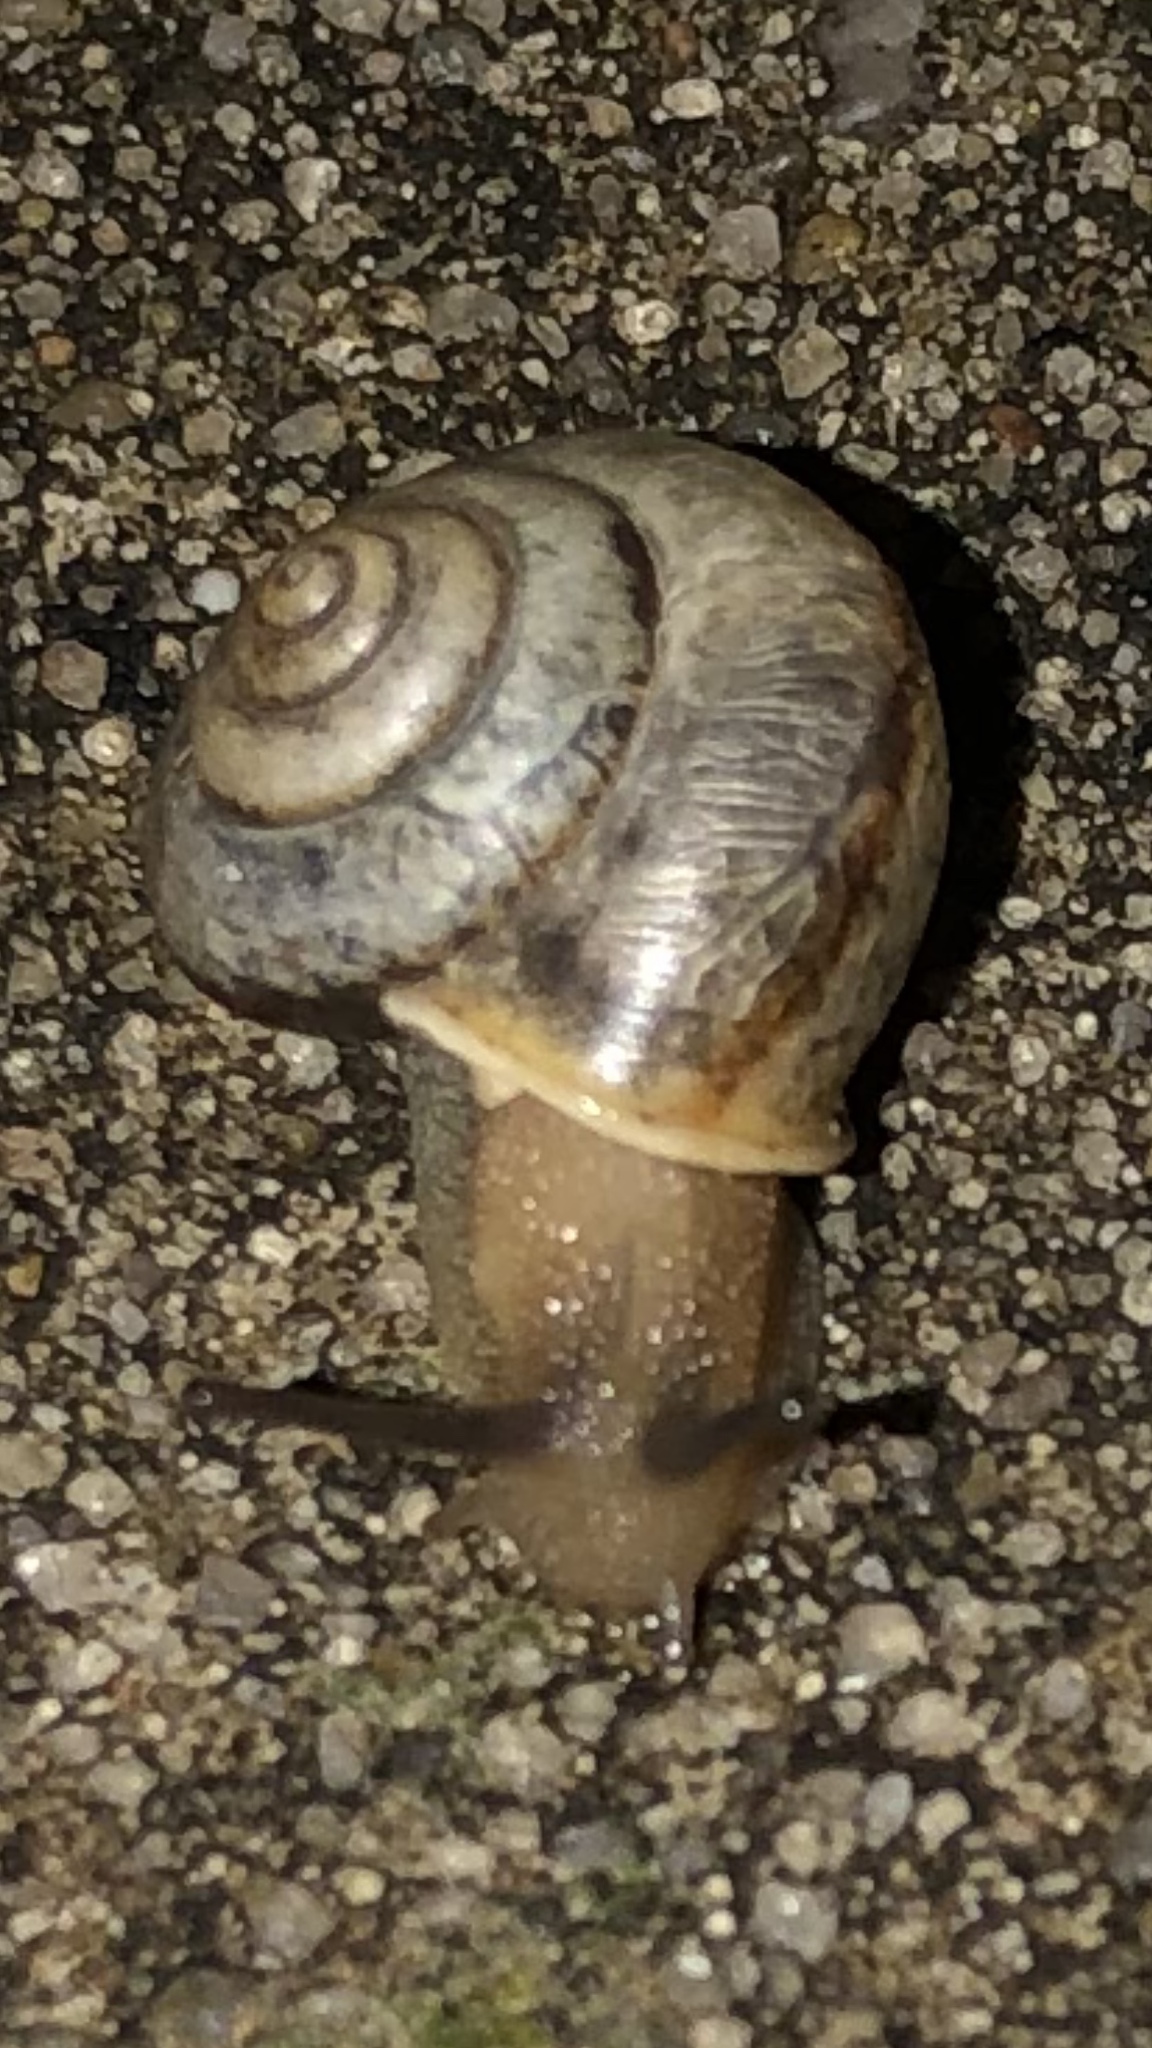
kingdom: Animalia
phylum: Mollusca
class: Gastropoda
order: Stylommatophora
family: Camaenidae
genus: Bradybaena
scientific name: Bradybaena similaris
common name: Asian trampsnail
